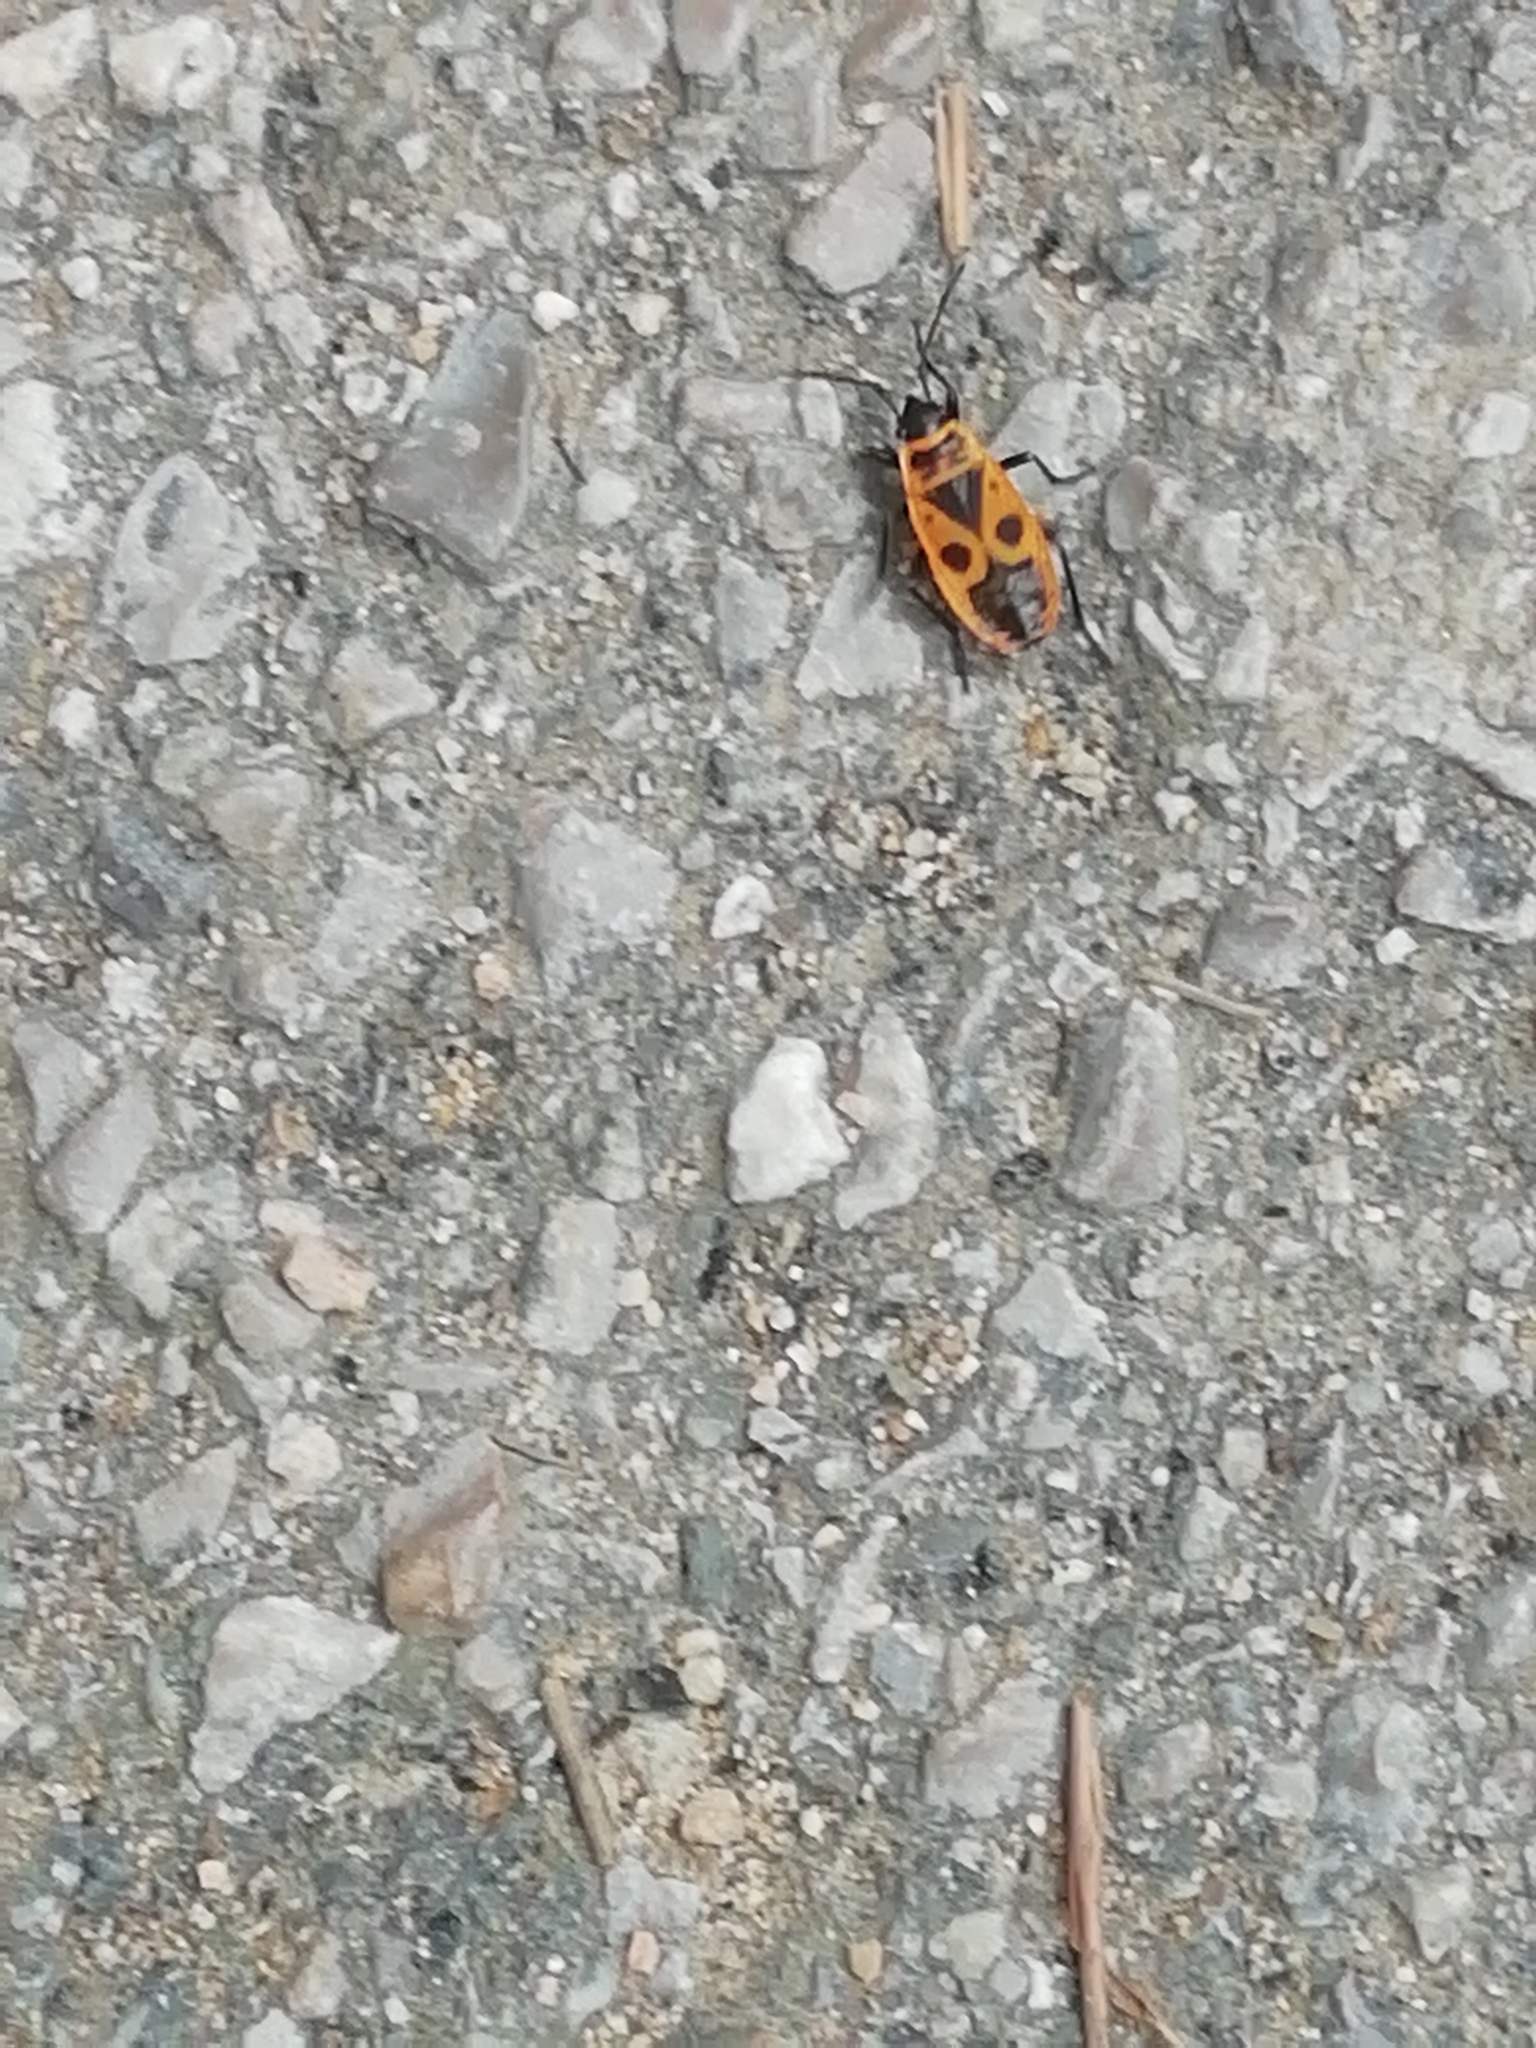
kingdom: Animalia
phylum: Arthropoda
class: Insecta
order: Hemiptera
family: Pyrrhocoridae
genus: Pyrrhocoris
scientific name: Pyrrhocoris apterus
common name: Firebug
